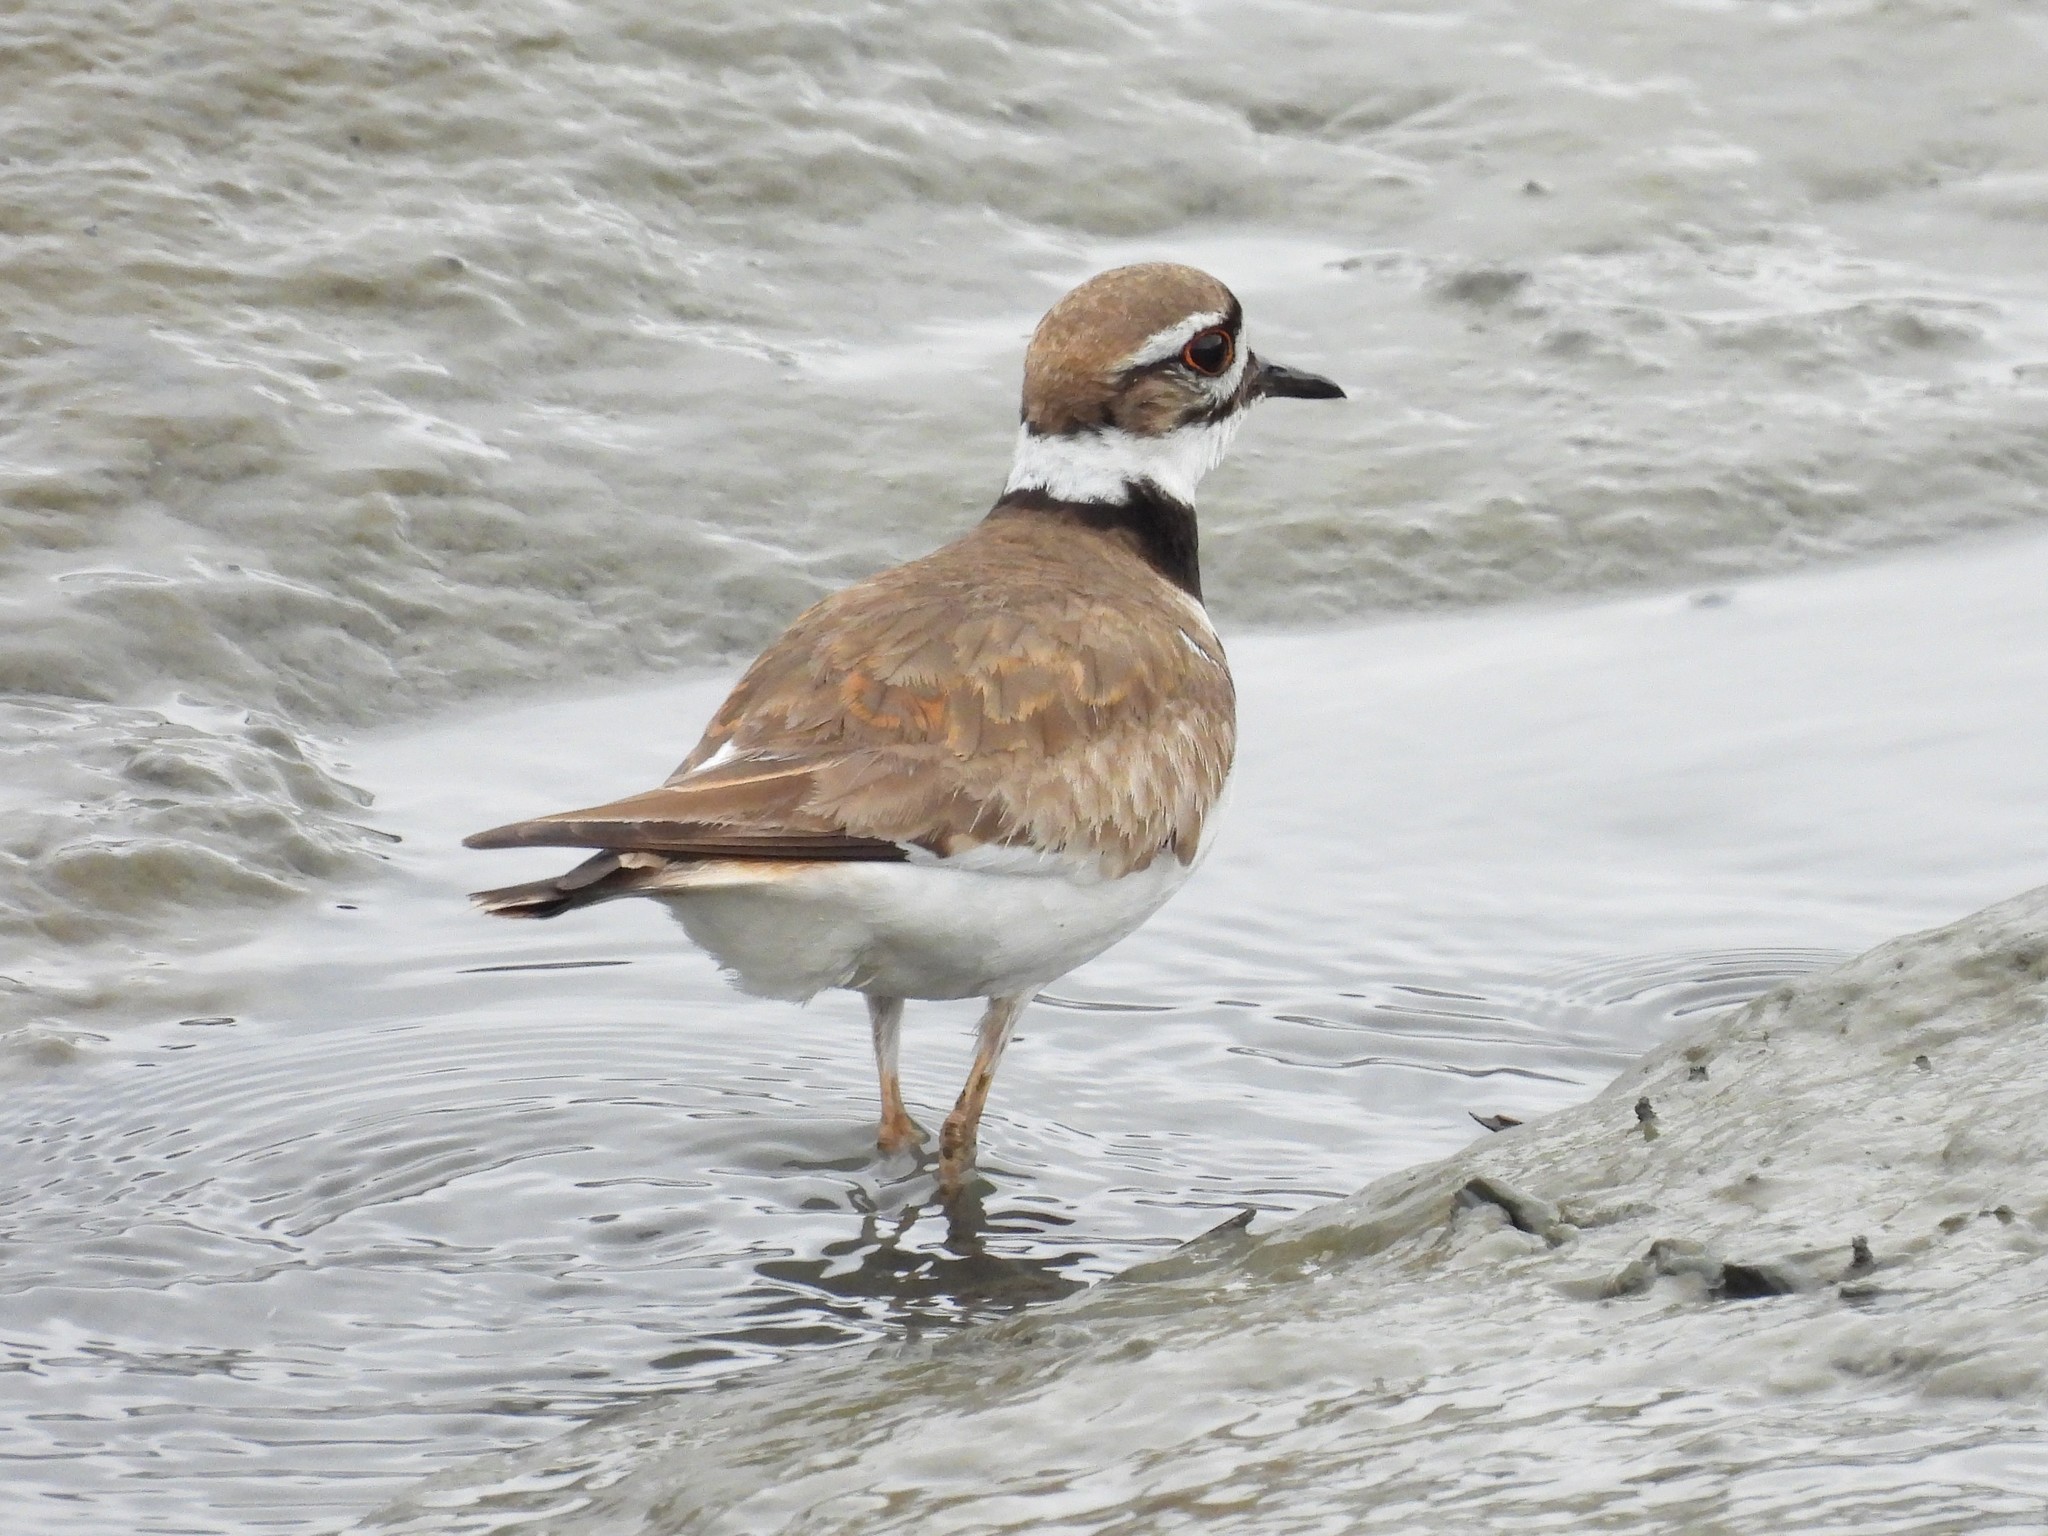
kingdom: Animalia
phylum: Chordata
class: Aves
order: Charadriiformes
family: Charadriidae
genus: Charadrius
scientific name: Charadrius vociferus
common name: Killdeer
